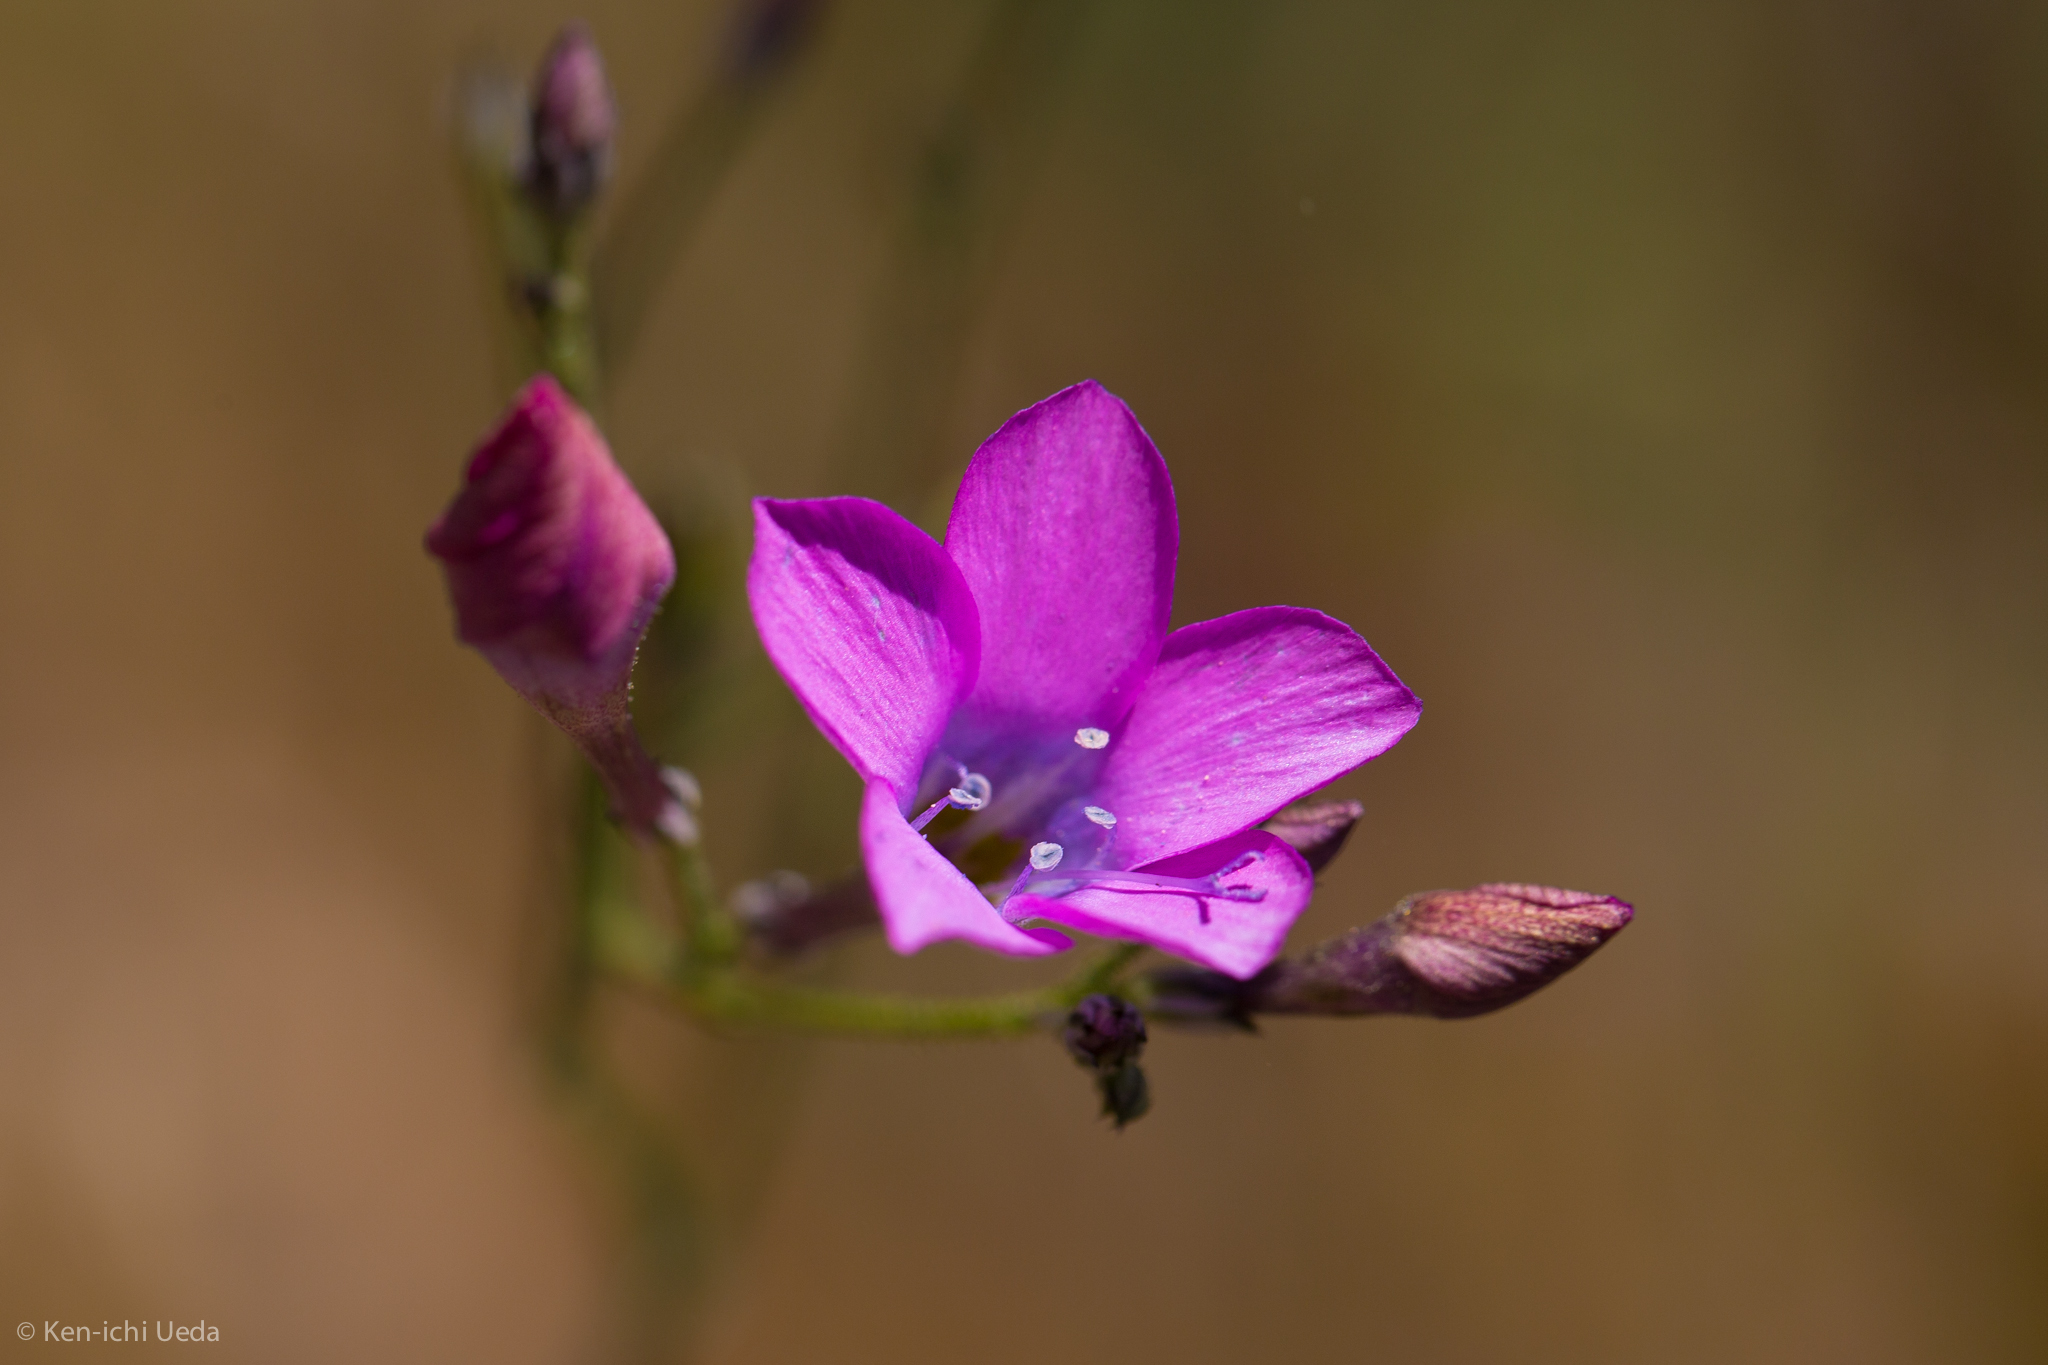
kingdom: Plantae
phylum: Tracheophyta
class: Magnoliopsida
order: Ericales
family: Polemoniaceae
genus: Saltugilia
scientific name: Saltugilia splendens
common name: Grinnell's gilia
